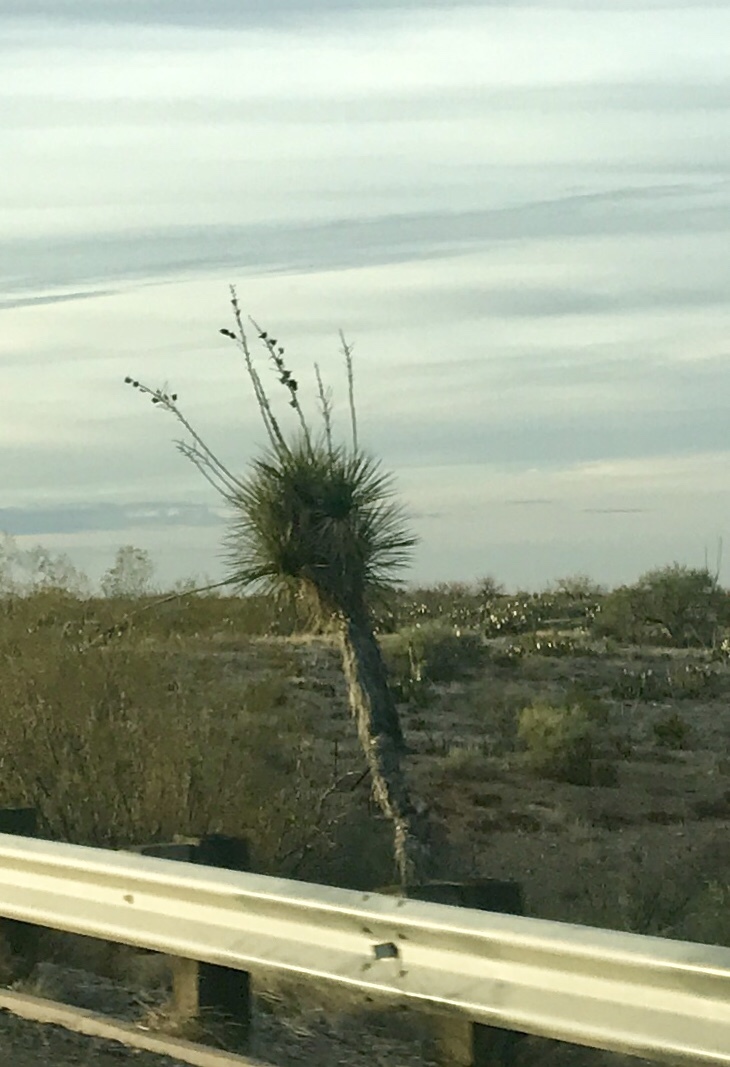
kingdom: Plantae
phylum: Tracheophyta
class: Liliopsida
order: Asparagales
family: Asparagaceae
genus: Yucca
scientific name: Yucca elata
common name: Palmella
